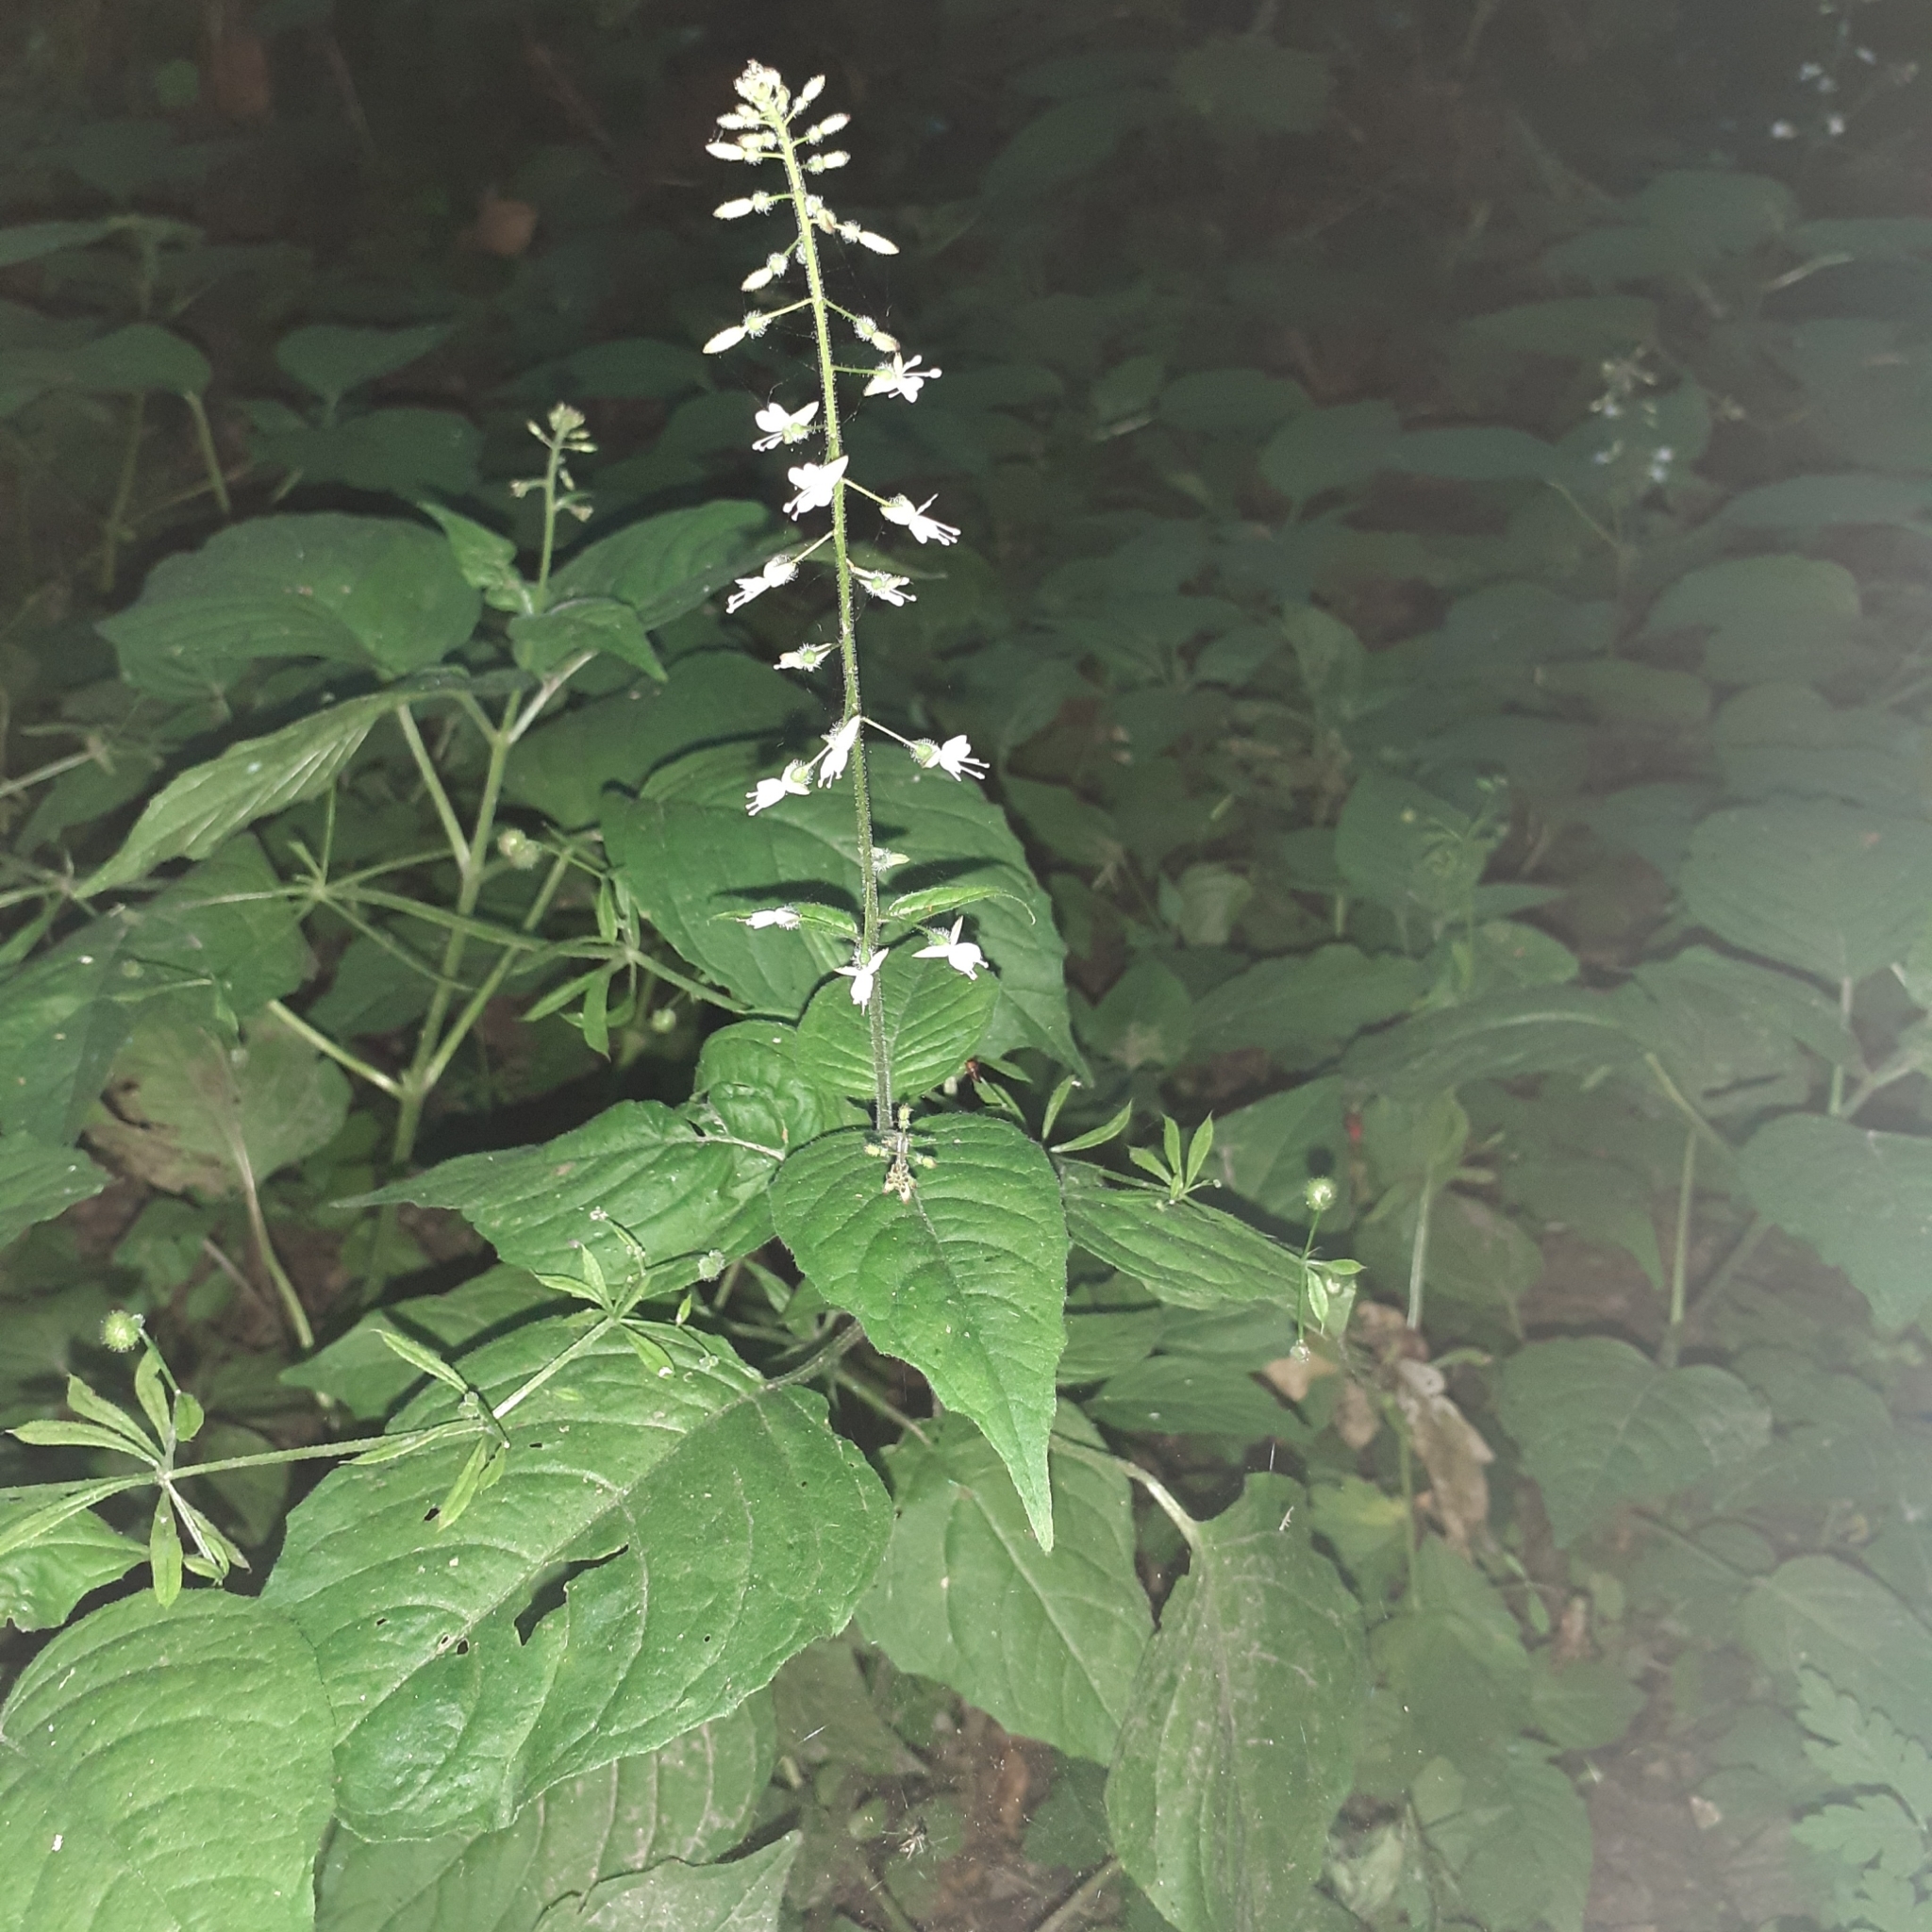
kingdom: Plantae
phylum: Tracheophyta
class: Magnoliopsida
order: Myrtales
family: Onagraceae
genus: Circaea
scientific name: Circaea lutetiana
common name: Enchanter's-nightshade
